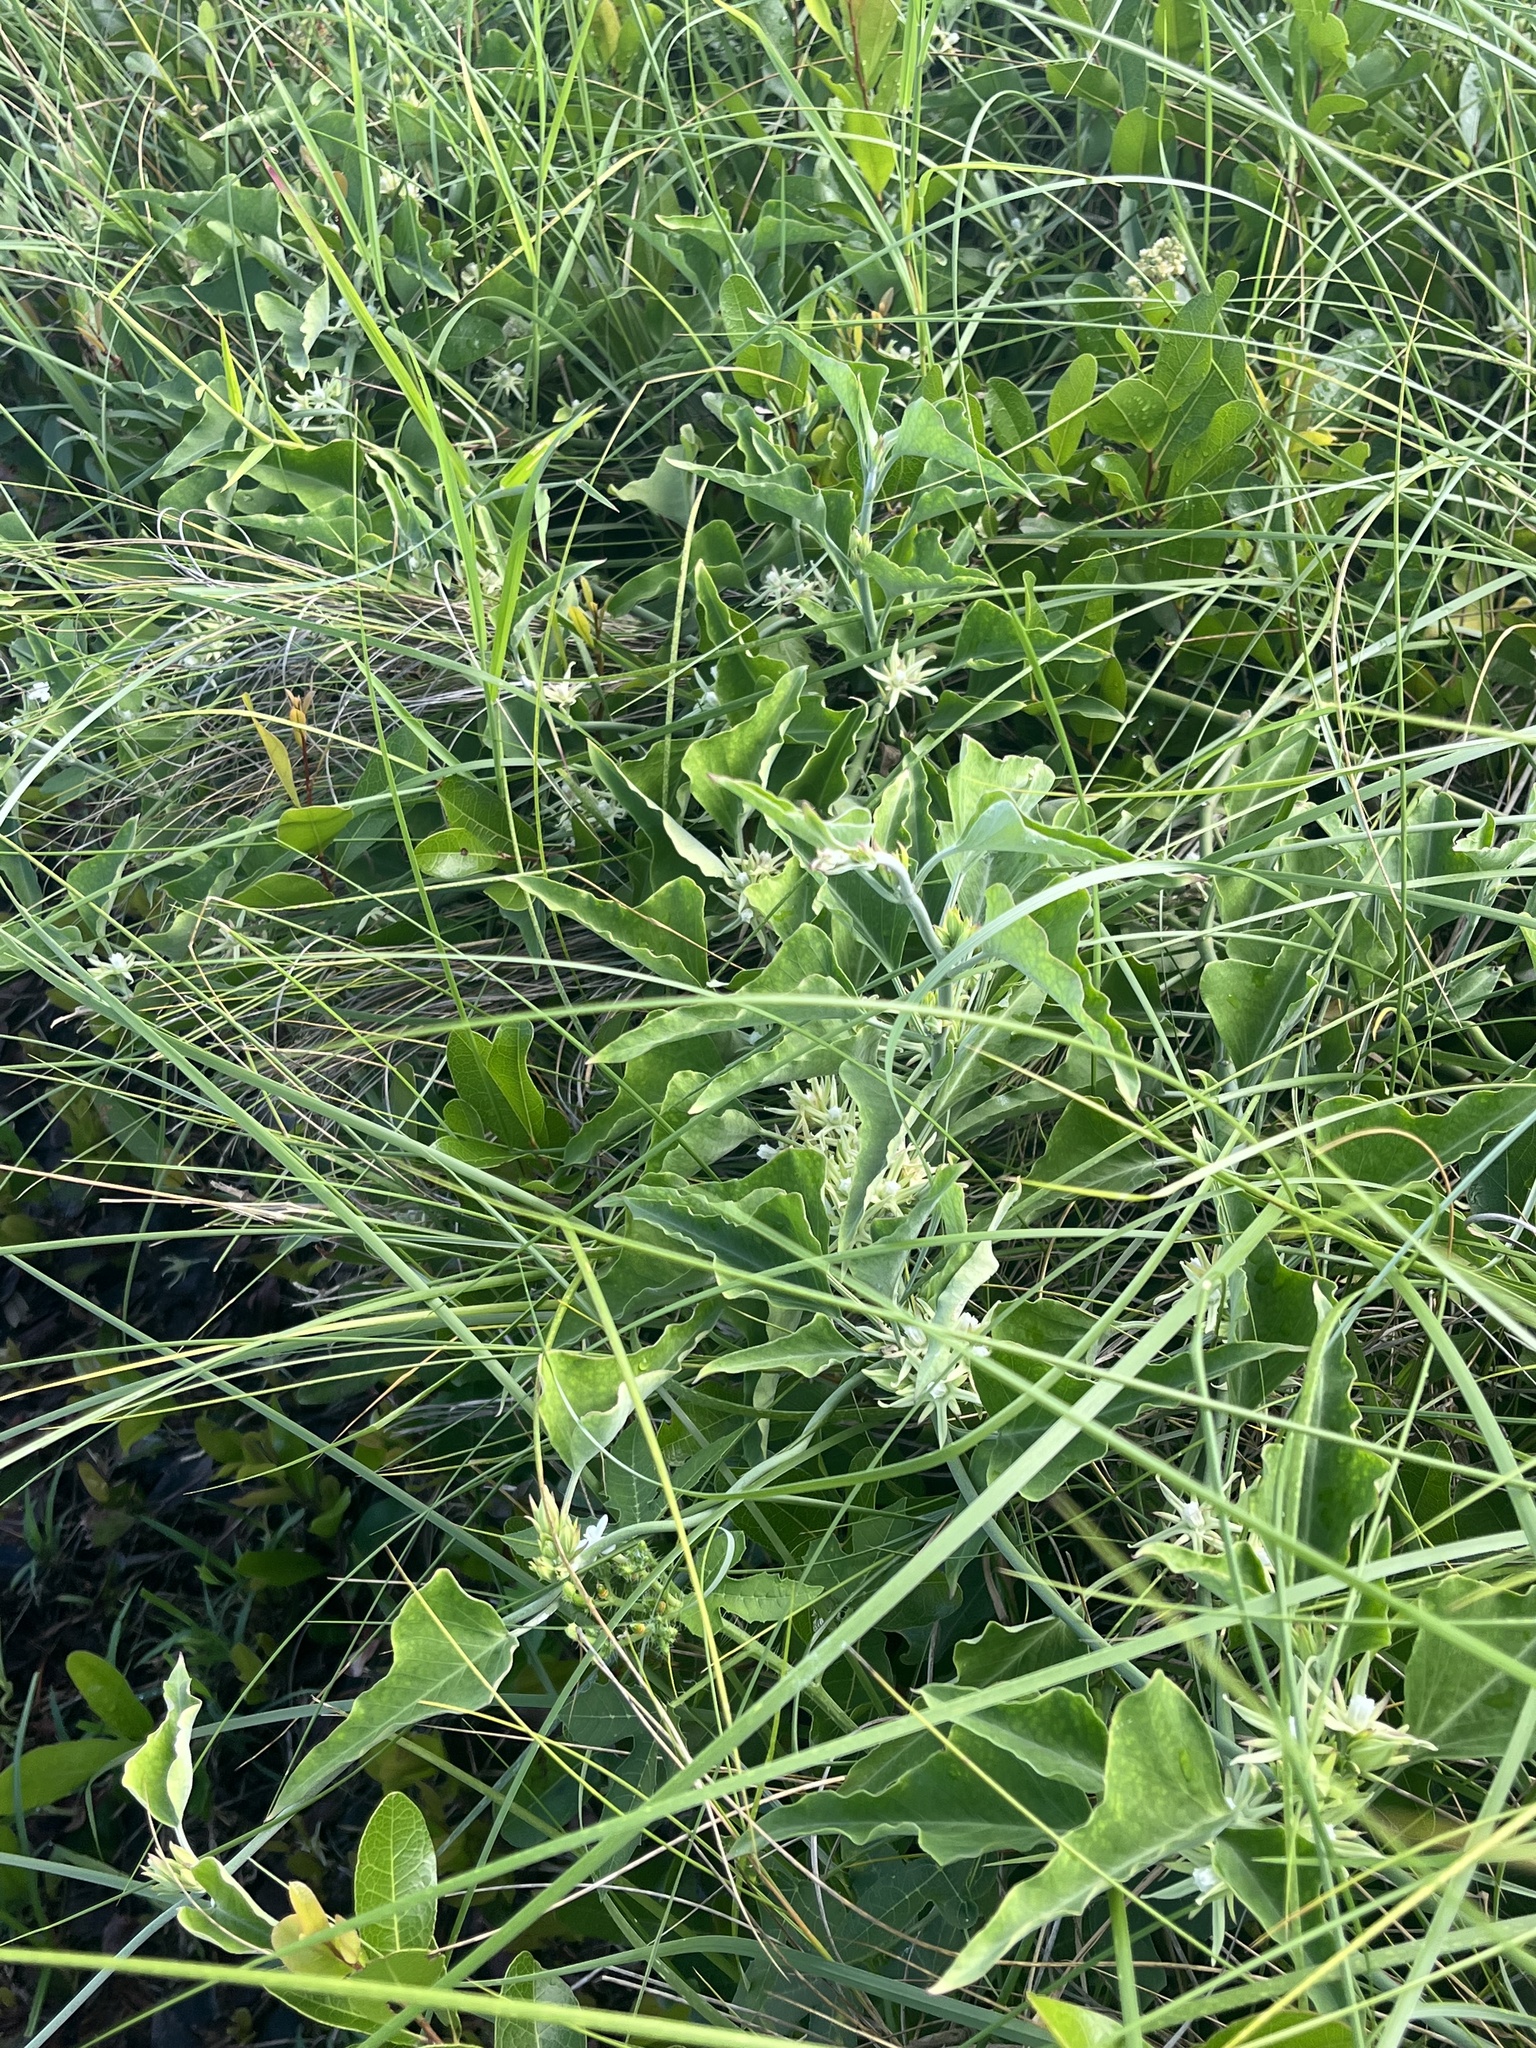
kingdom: Plantae
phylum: Tracheophyta
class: Magnoliopsida
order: Gentianales
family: Apocynaceae
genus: Araujia
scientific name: Araujia odorata
